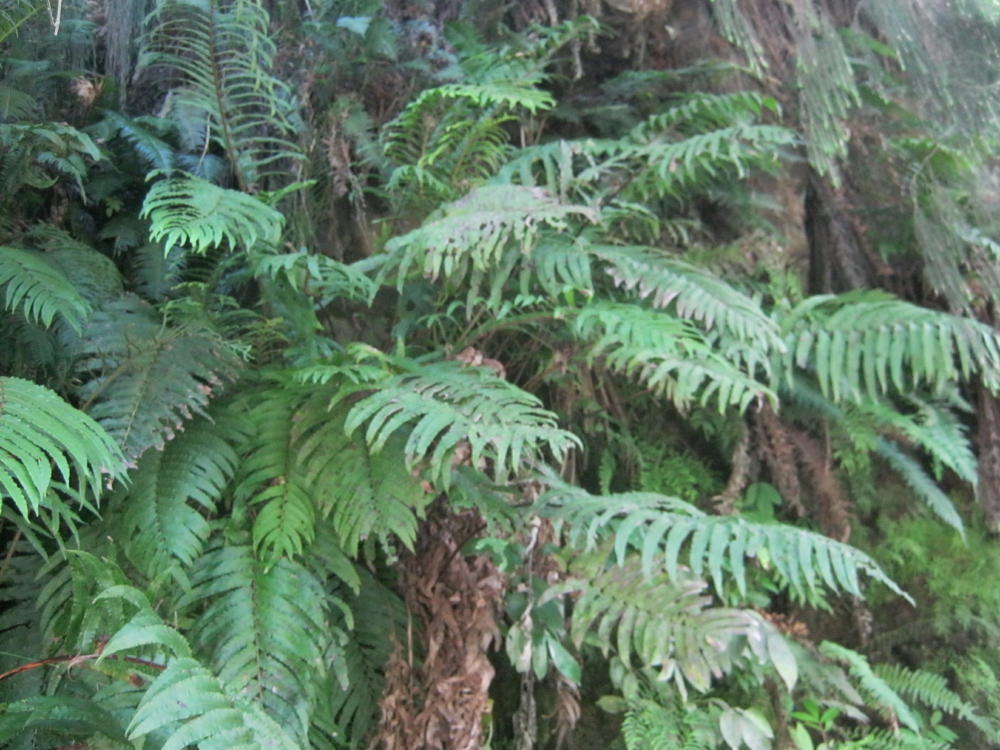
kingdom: Plantae
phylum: Tracheophyta
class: Polypodiopsida
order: Polypodiales
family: Blechnaceae
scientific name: Blechnaceae
